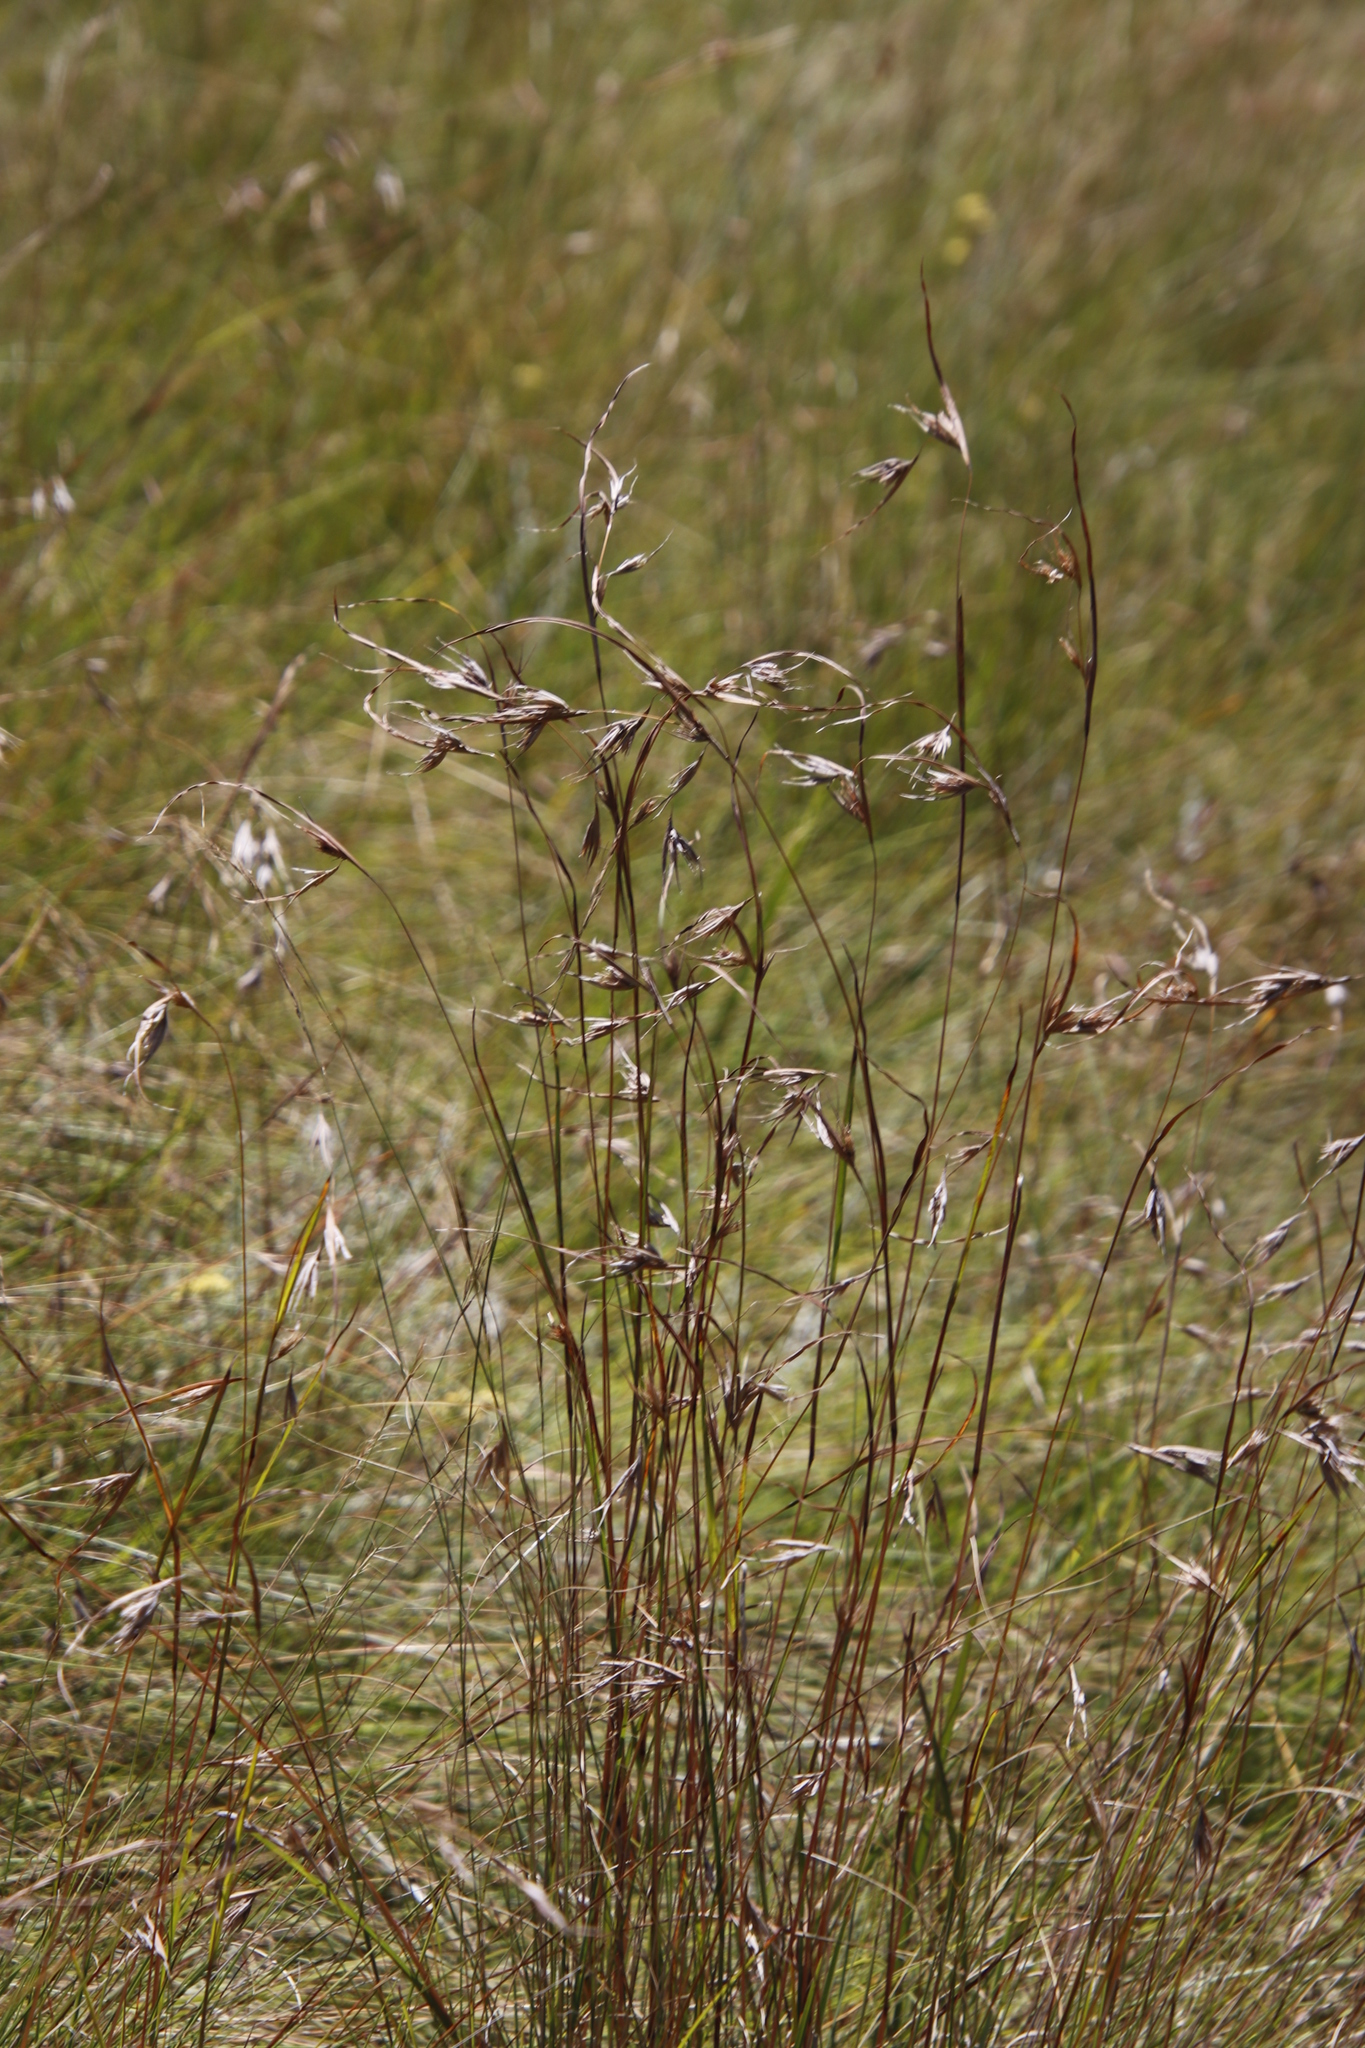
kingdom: Plantae
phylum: Tracheophyta
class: Liliopsida
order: Poales
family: Poaceae
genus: Themeda
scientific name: Themeda triandra
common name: Kangaroo grass
